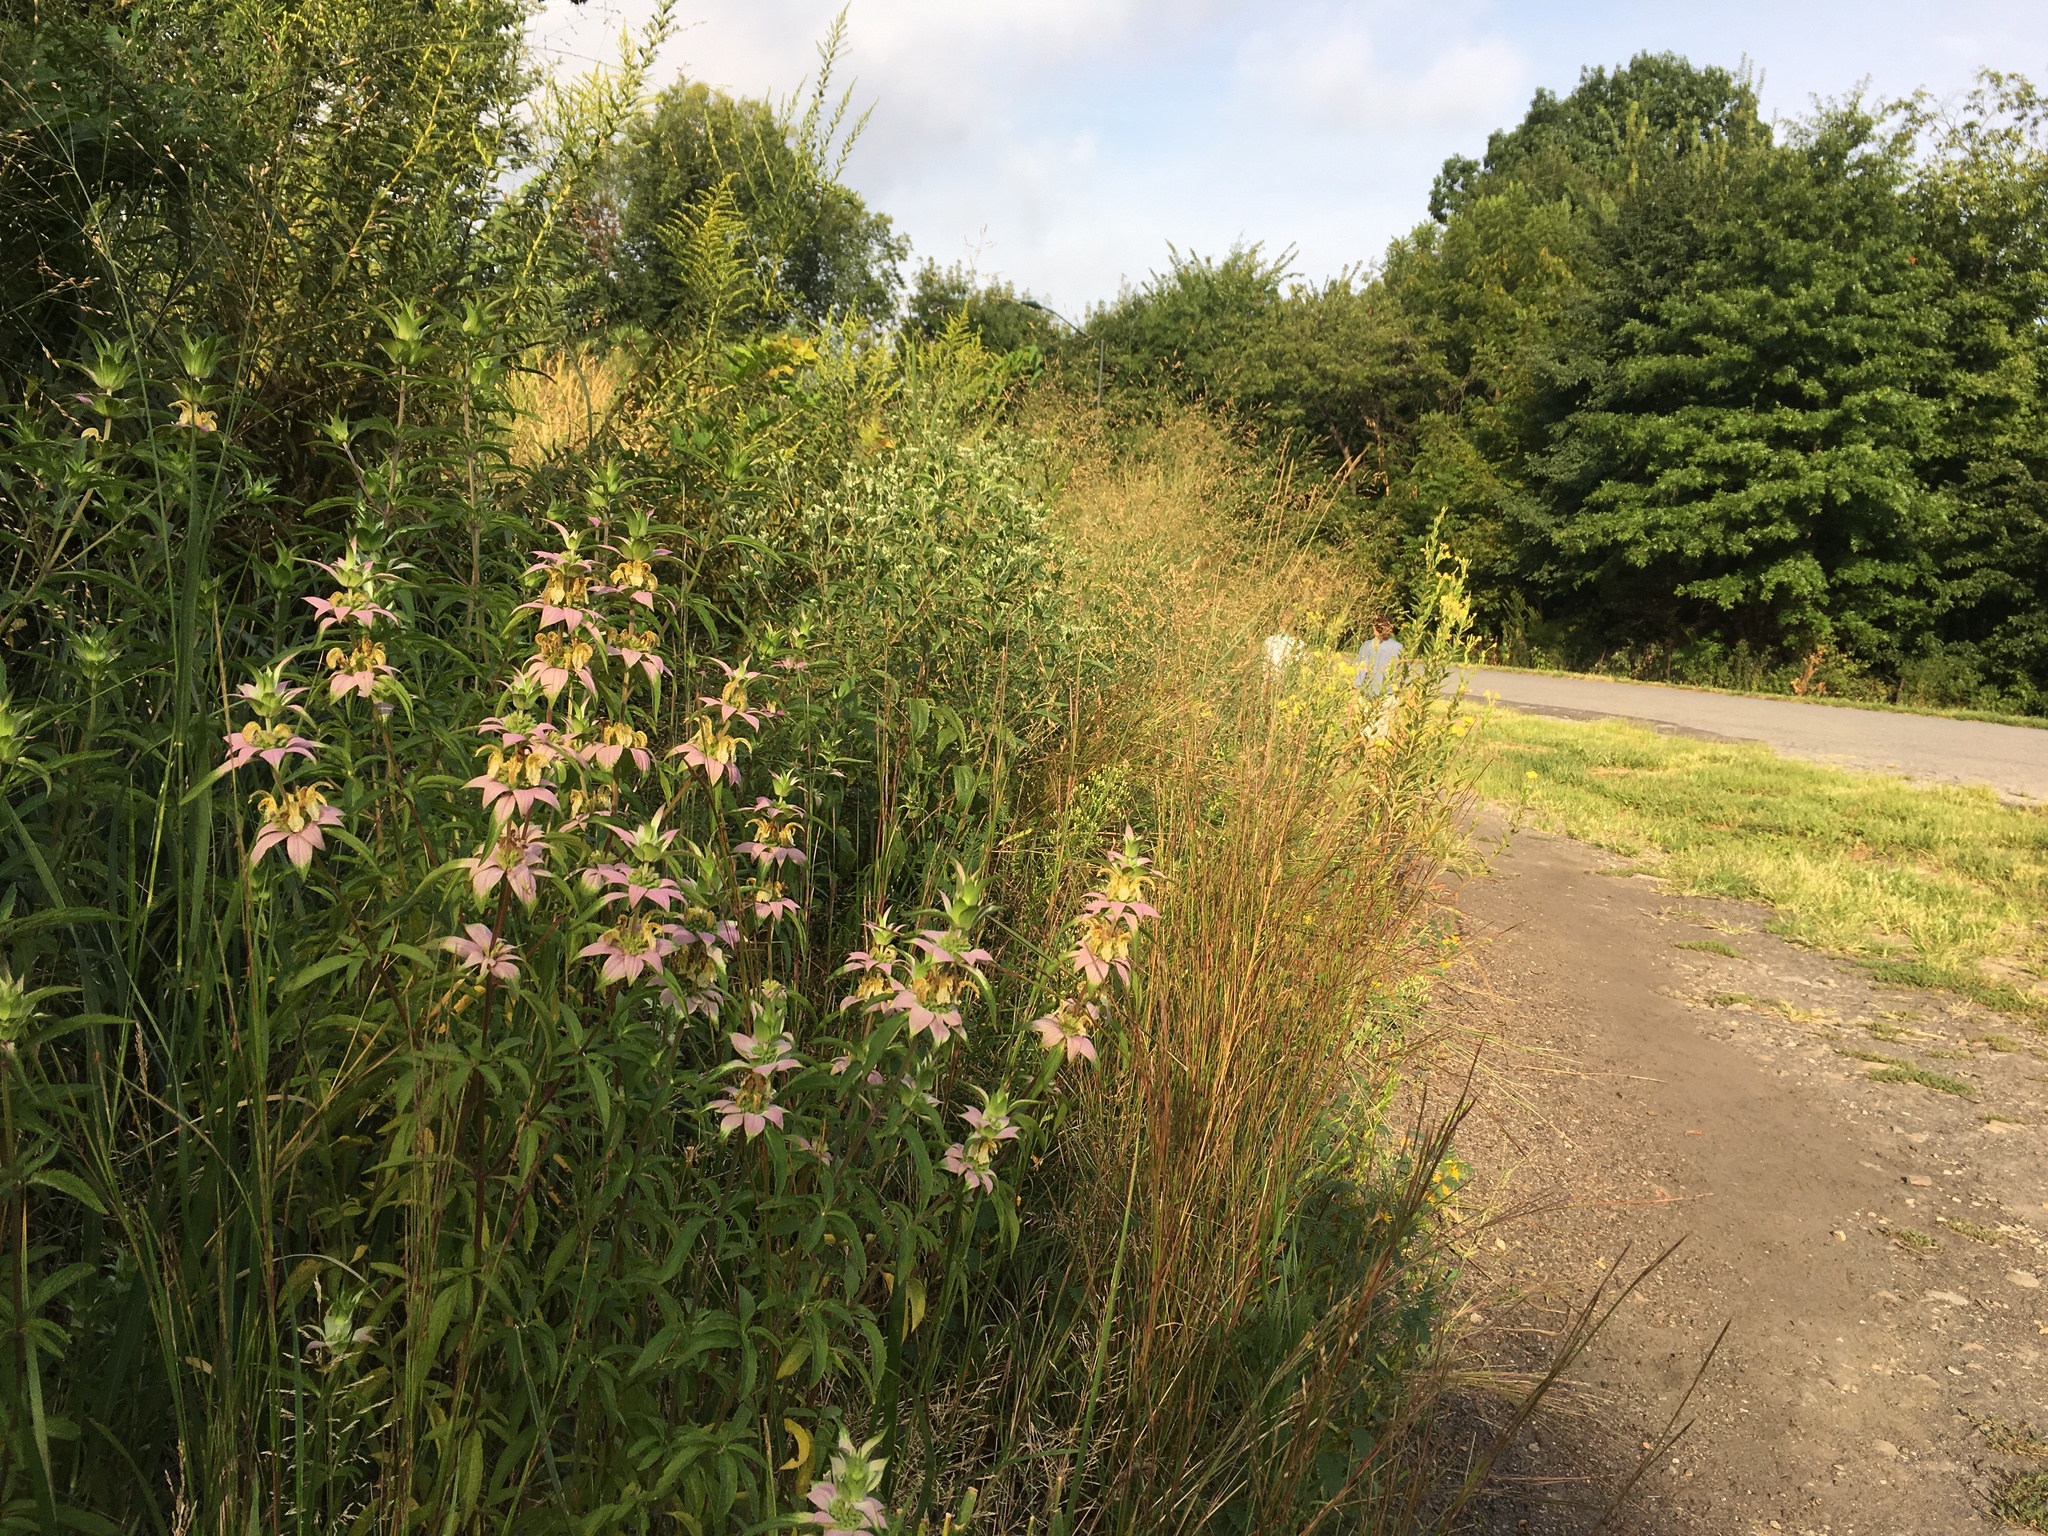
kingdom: Plantae
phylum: Tracheophyta
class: Magnoliopsida
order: Lamiales
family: Lamiaceae
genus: Monarda
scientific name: Monarda punctata
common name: Dotted monarda
